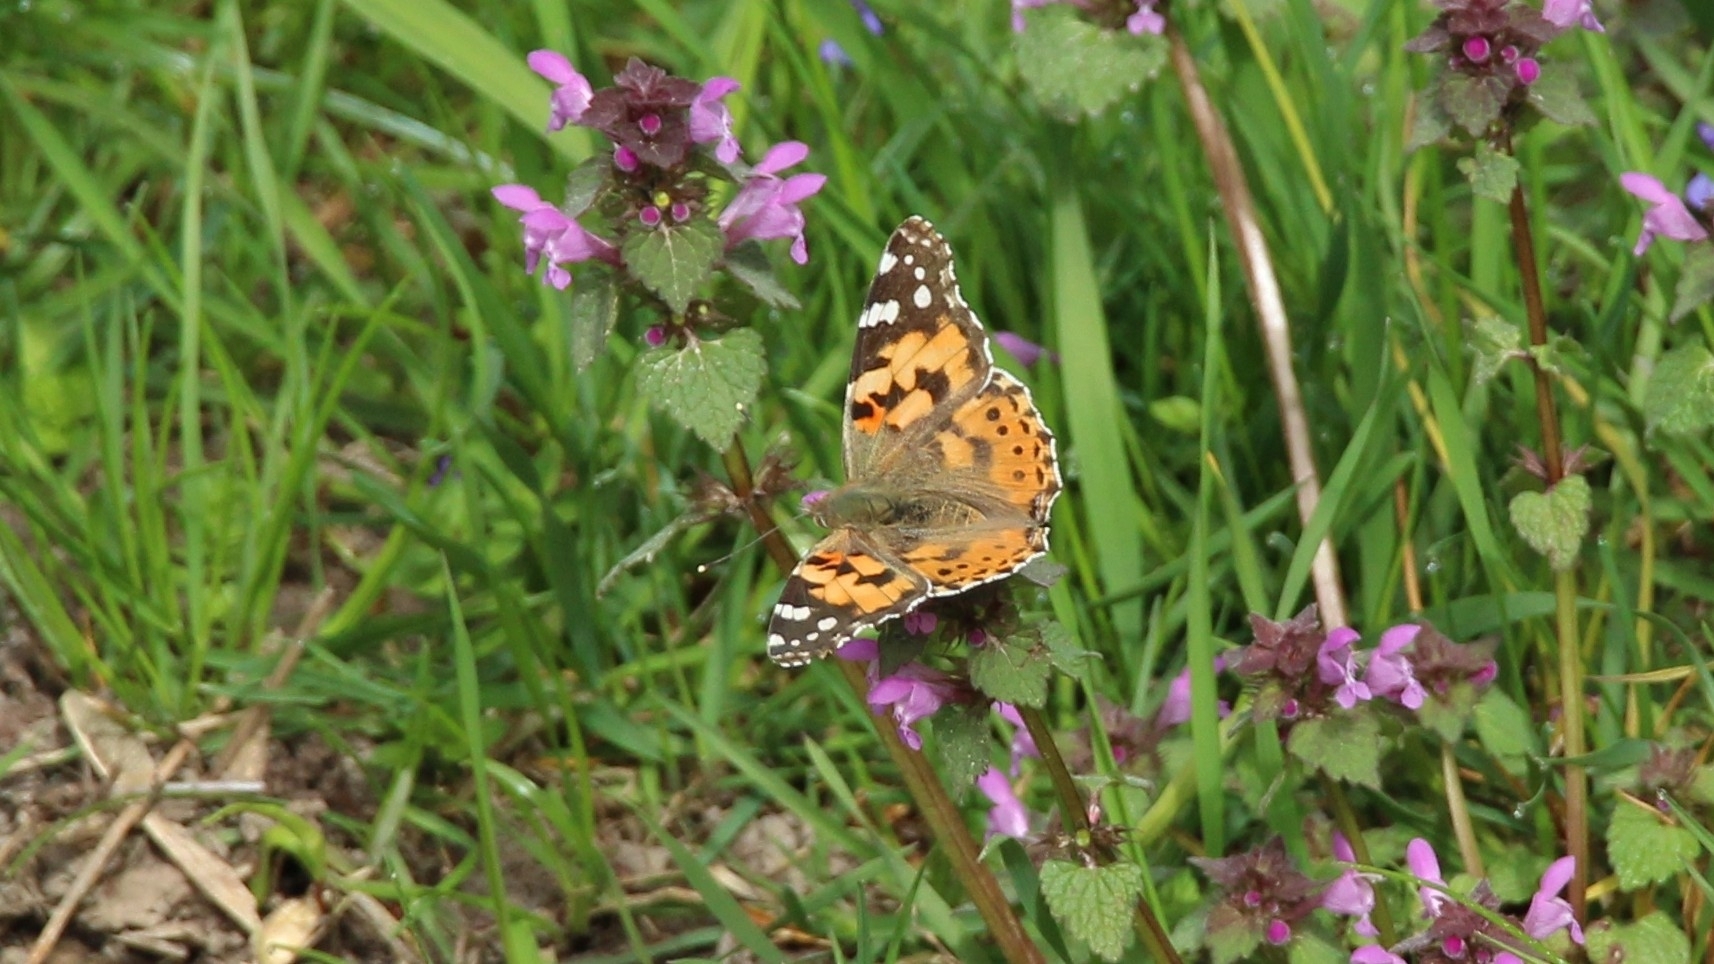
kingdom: Animalia
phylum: Arthropoda
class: Insecta
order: Lepidoptera
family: Nymphalidae
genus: Vanessa
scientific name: Vanessa cardui
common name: Painted lady
